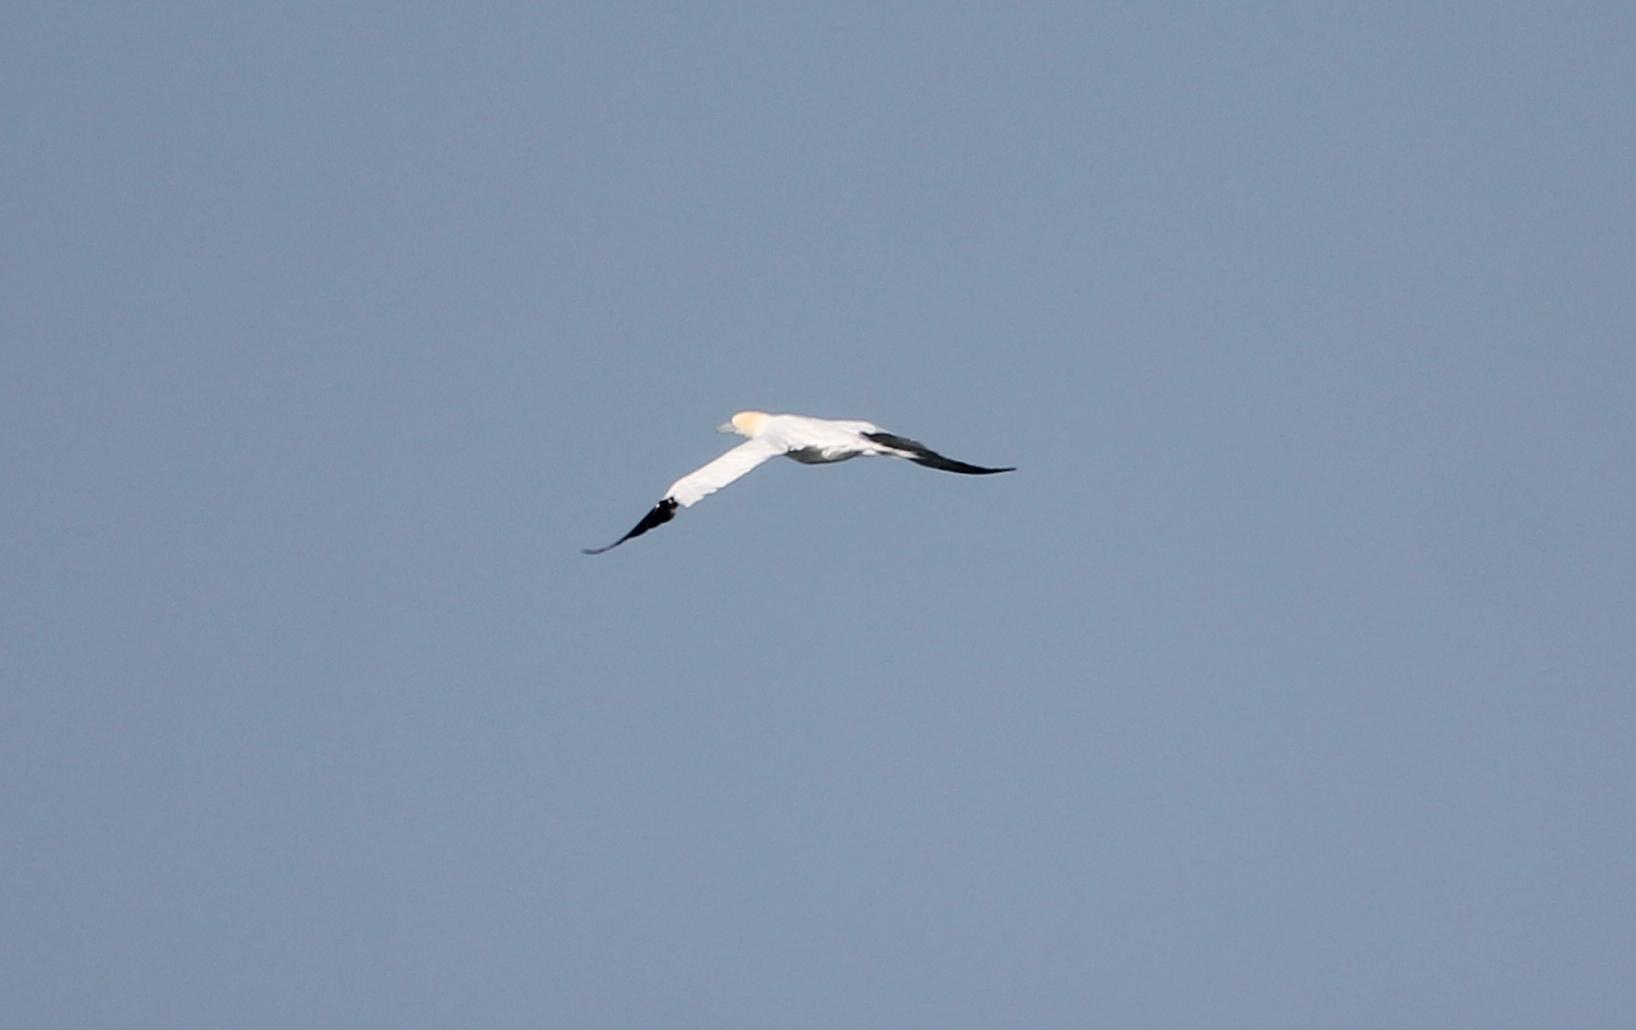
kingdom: Animalia
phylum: Chordata
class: Aves
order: Suliformes
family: Sulidae
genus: Morus
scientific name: Morus bassanus
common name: Northern gannet
